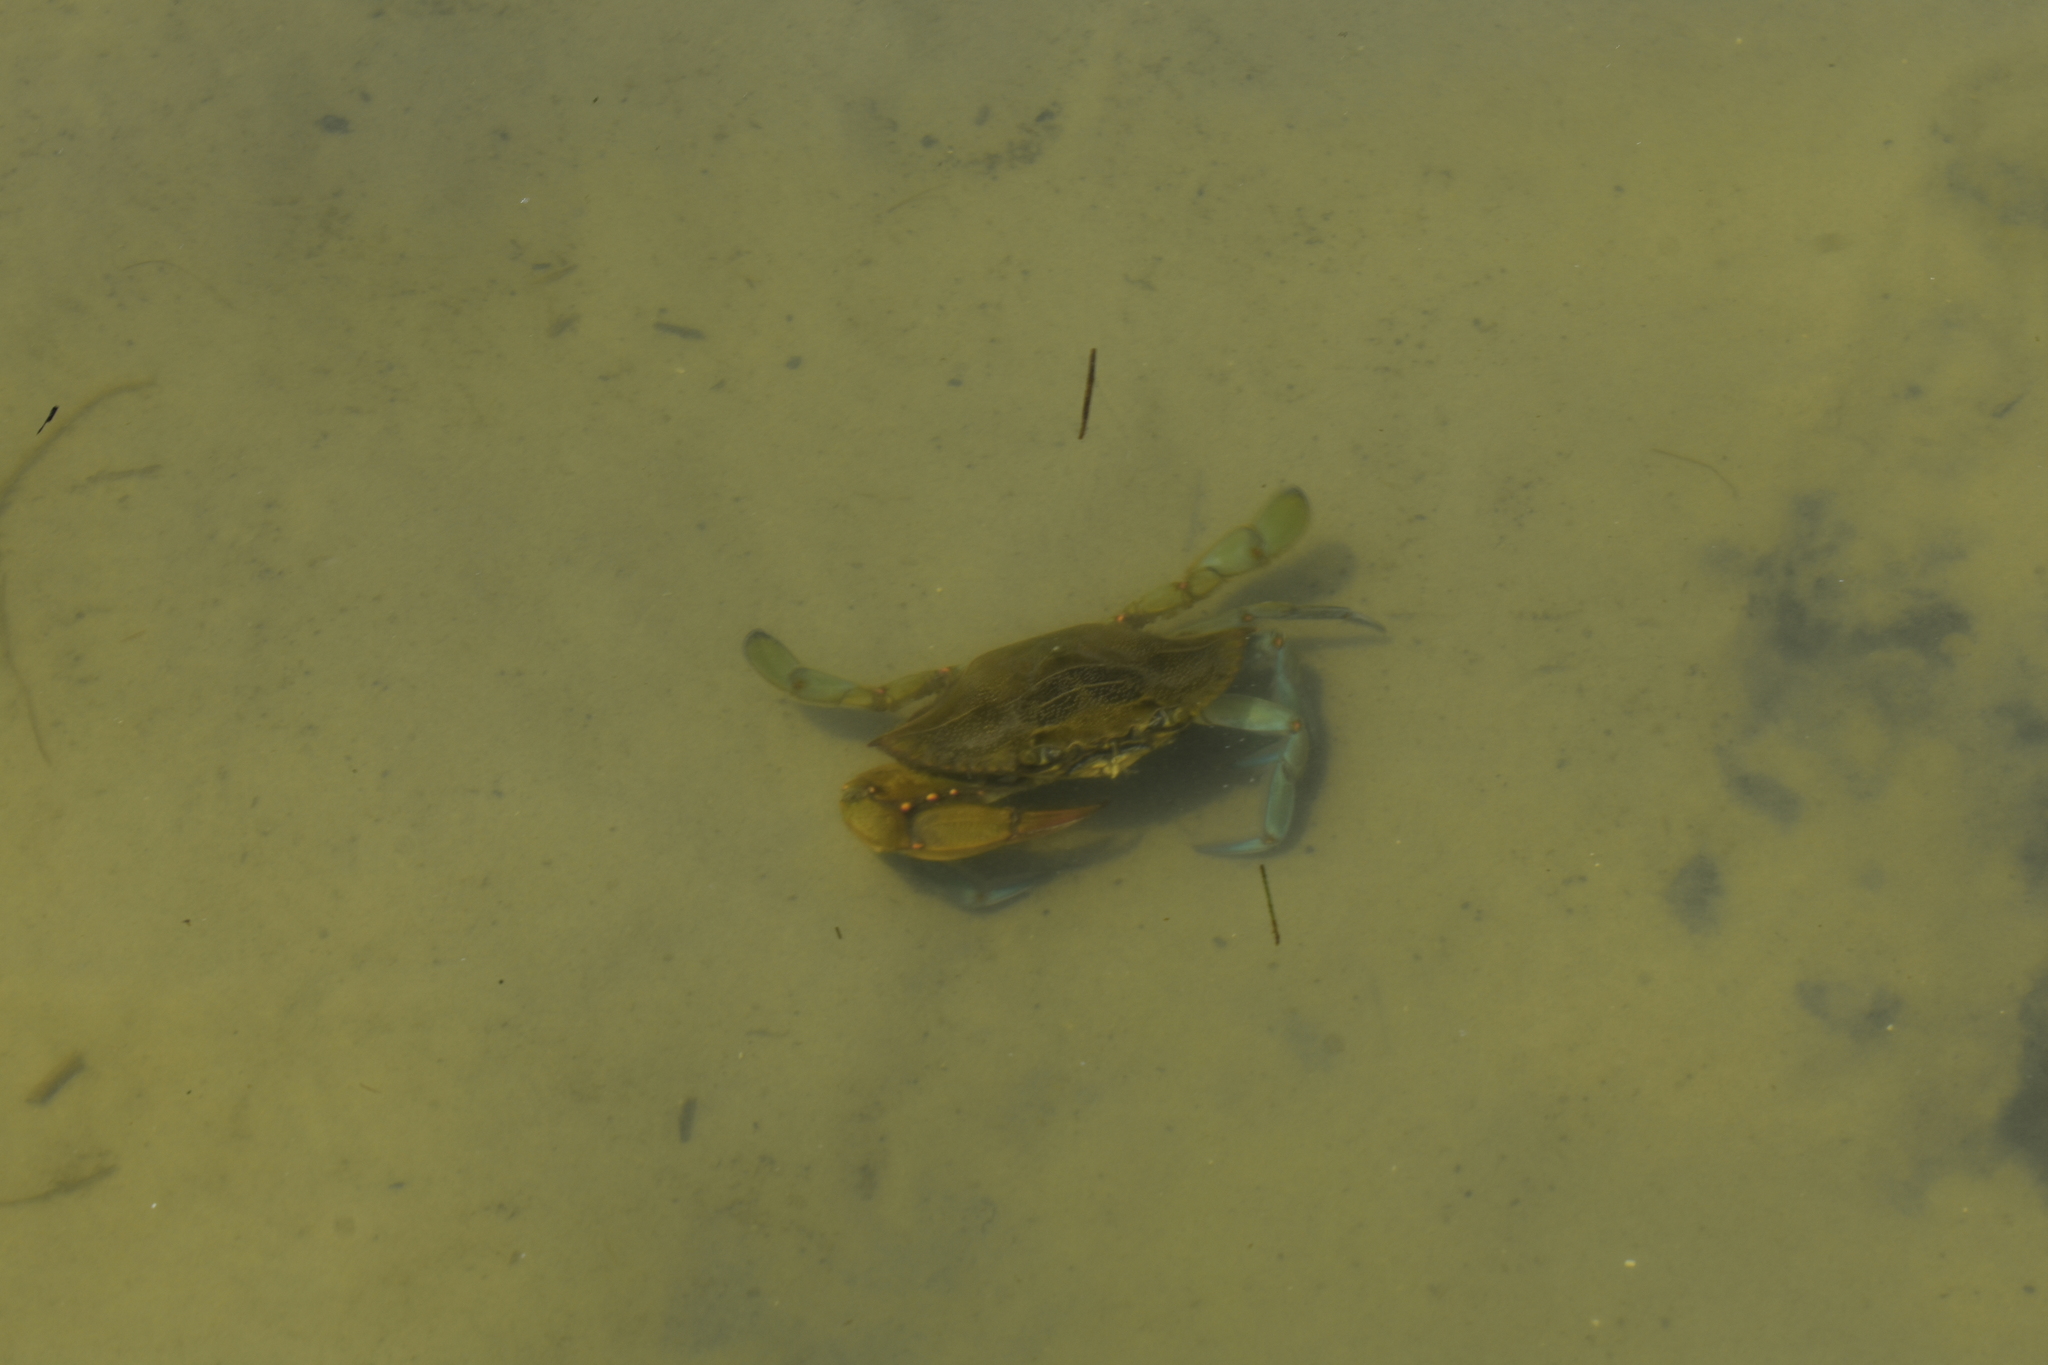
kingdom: Animalia
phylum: Arthropoda
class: Malacostraca
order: Decapoda
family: Portunidae
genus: Callinectes
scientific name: Callinectes sapidus
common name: Blue crab
